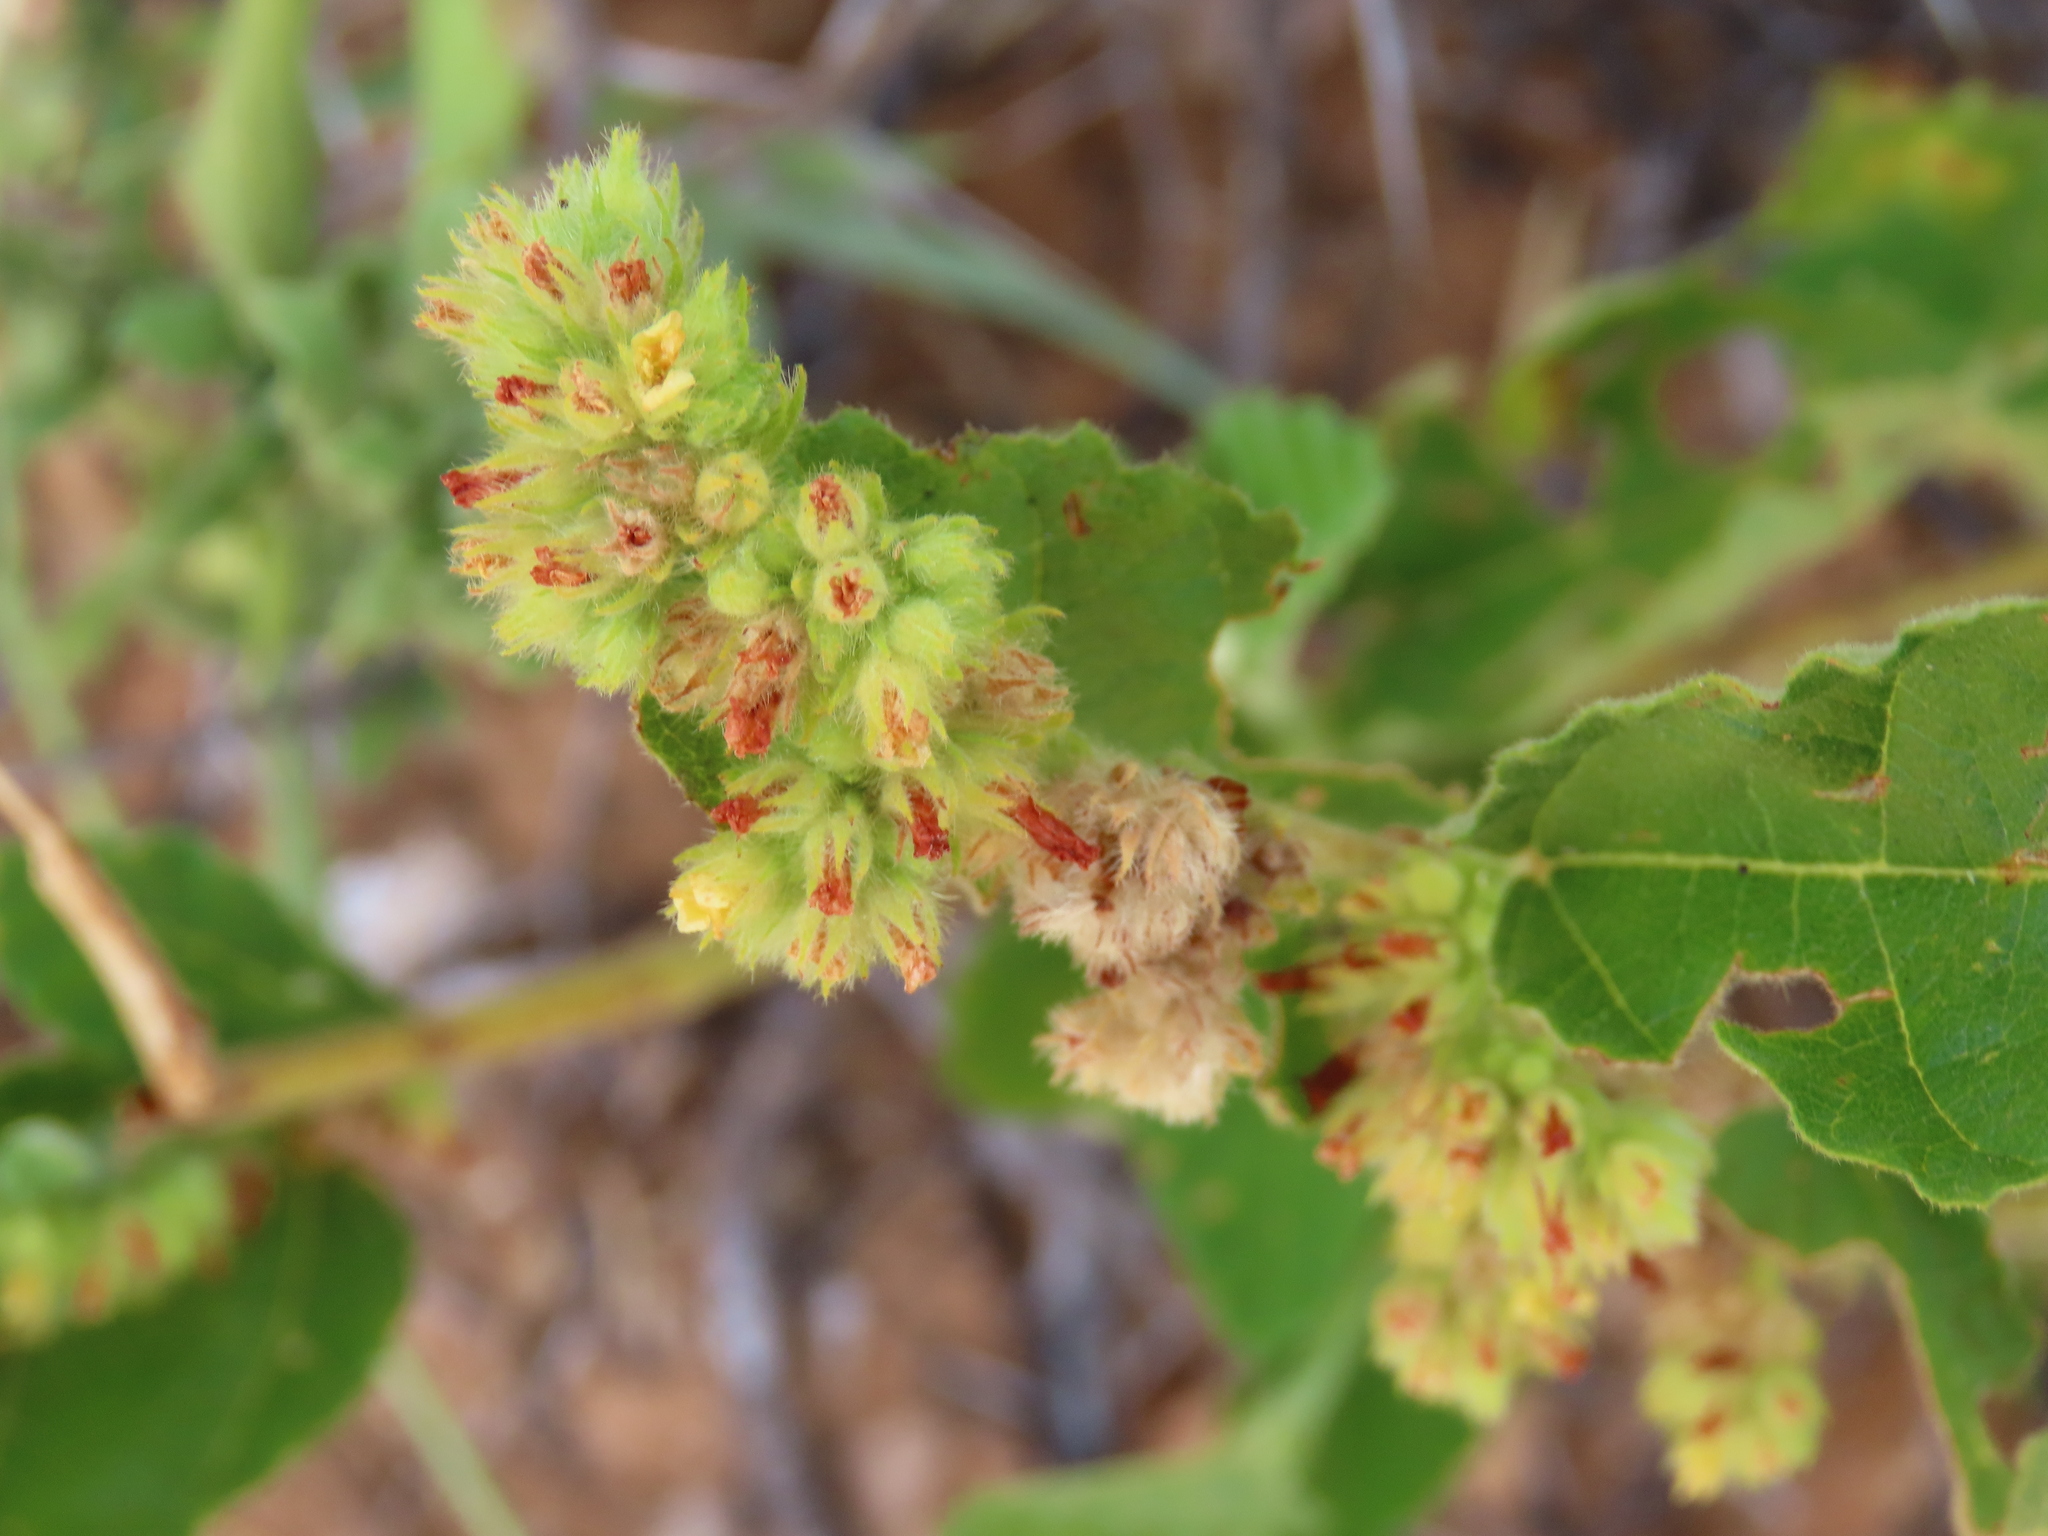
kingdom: Plantae
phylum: Tracheophyta
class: Magnoliopsida
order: Malvales
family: Malvaceae
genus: Waltheria
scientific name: Waltheria indica
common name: Leather-coat
